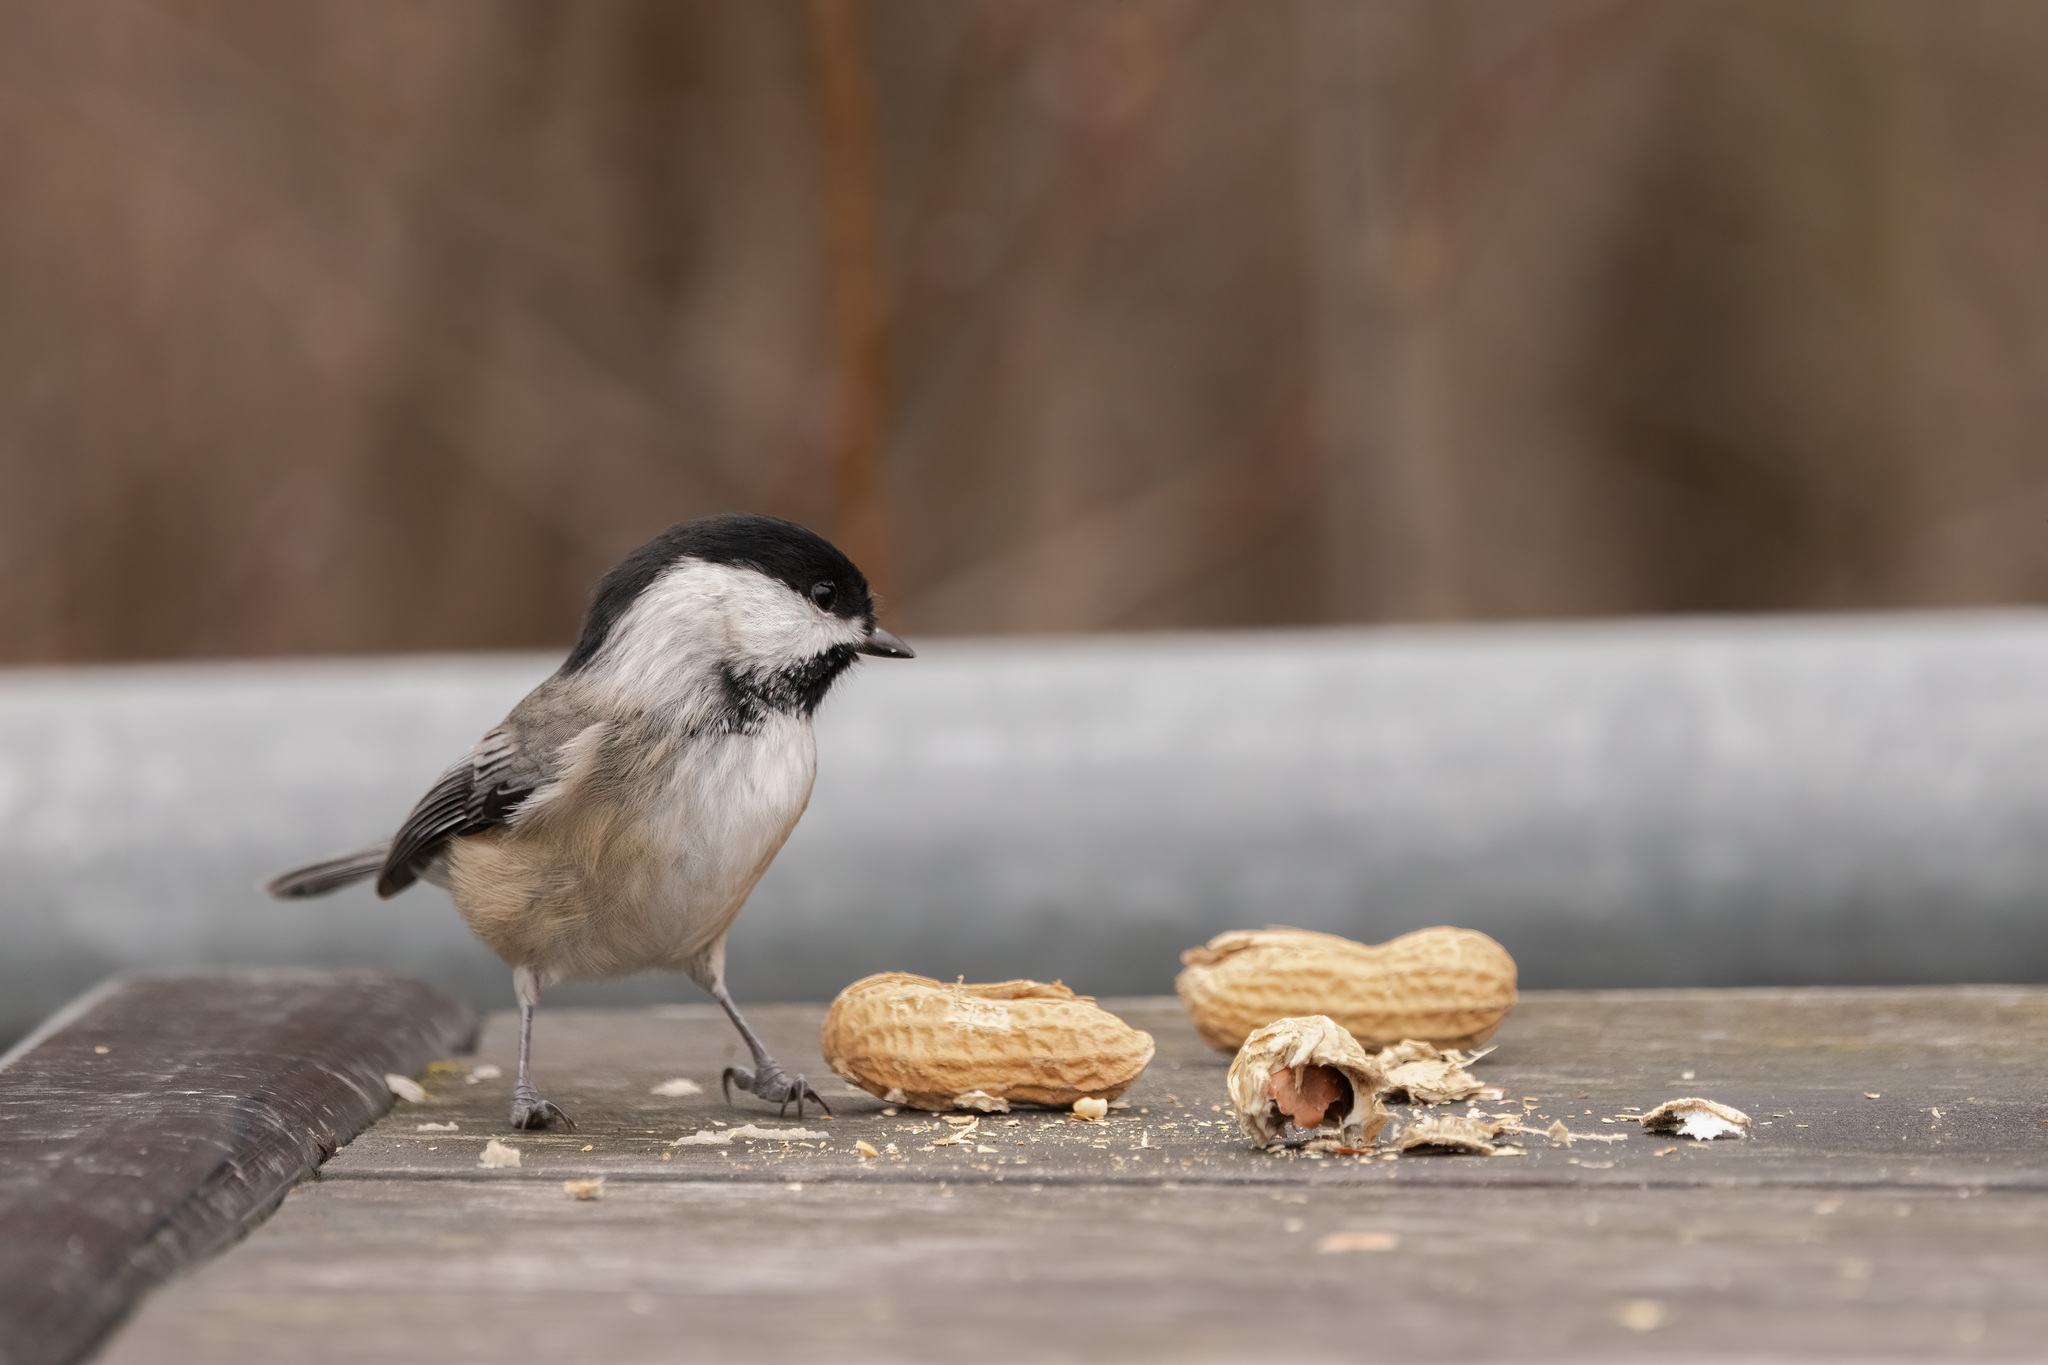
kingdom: Animalia
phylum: Chordata
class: Aves
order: Passeriformes
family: Paridae
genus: Poecile
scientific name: Poecile atricapillus
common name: Black-capped chickadee
